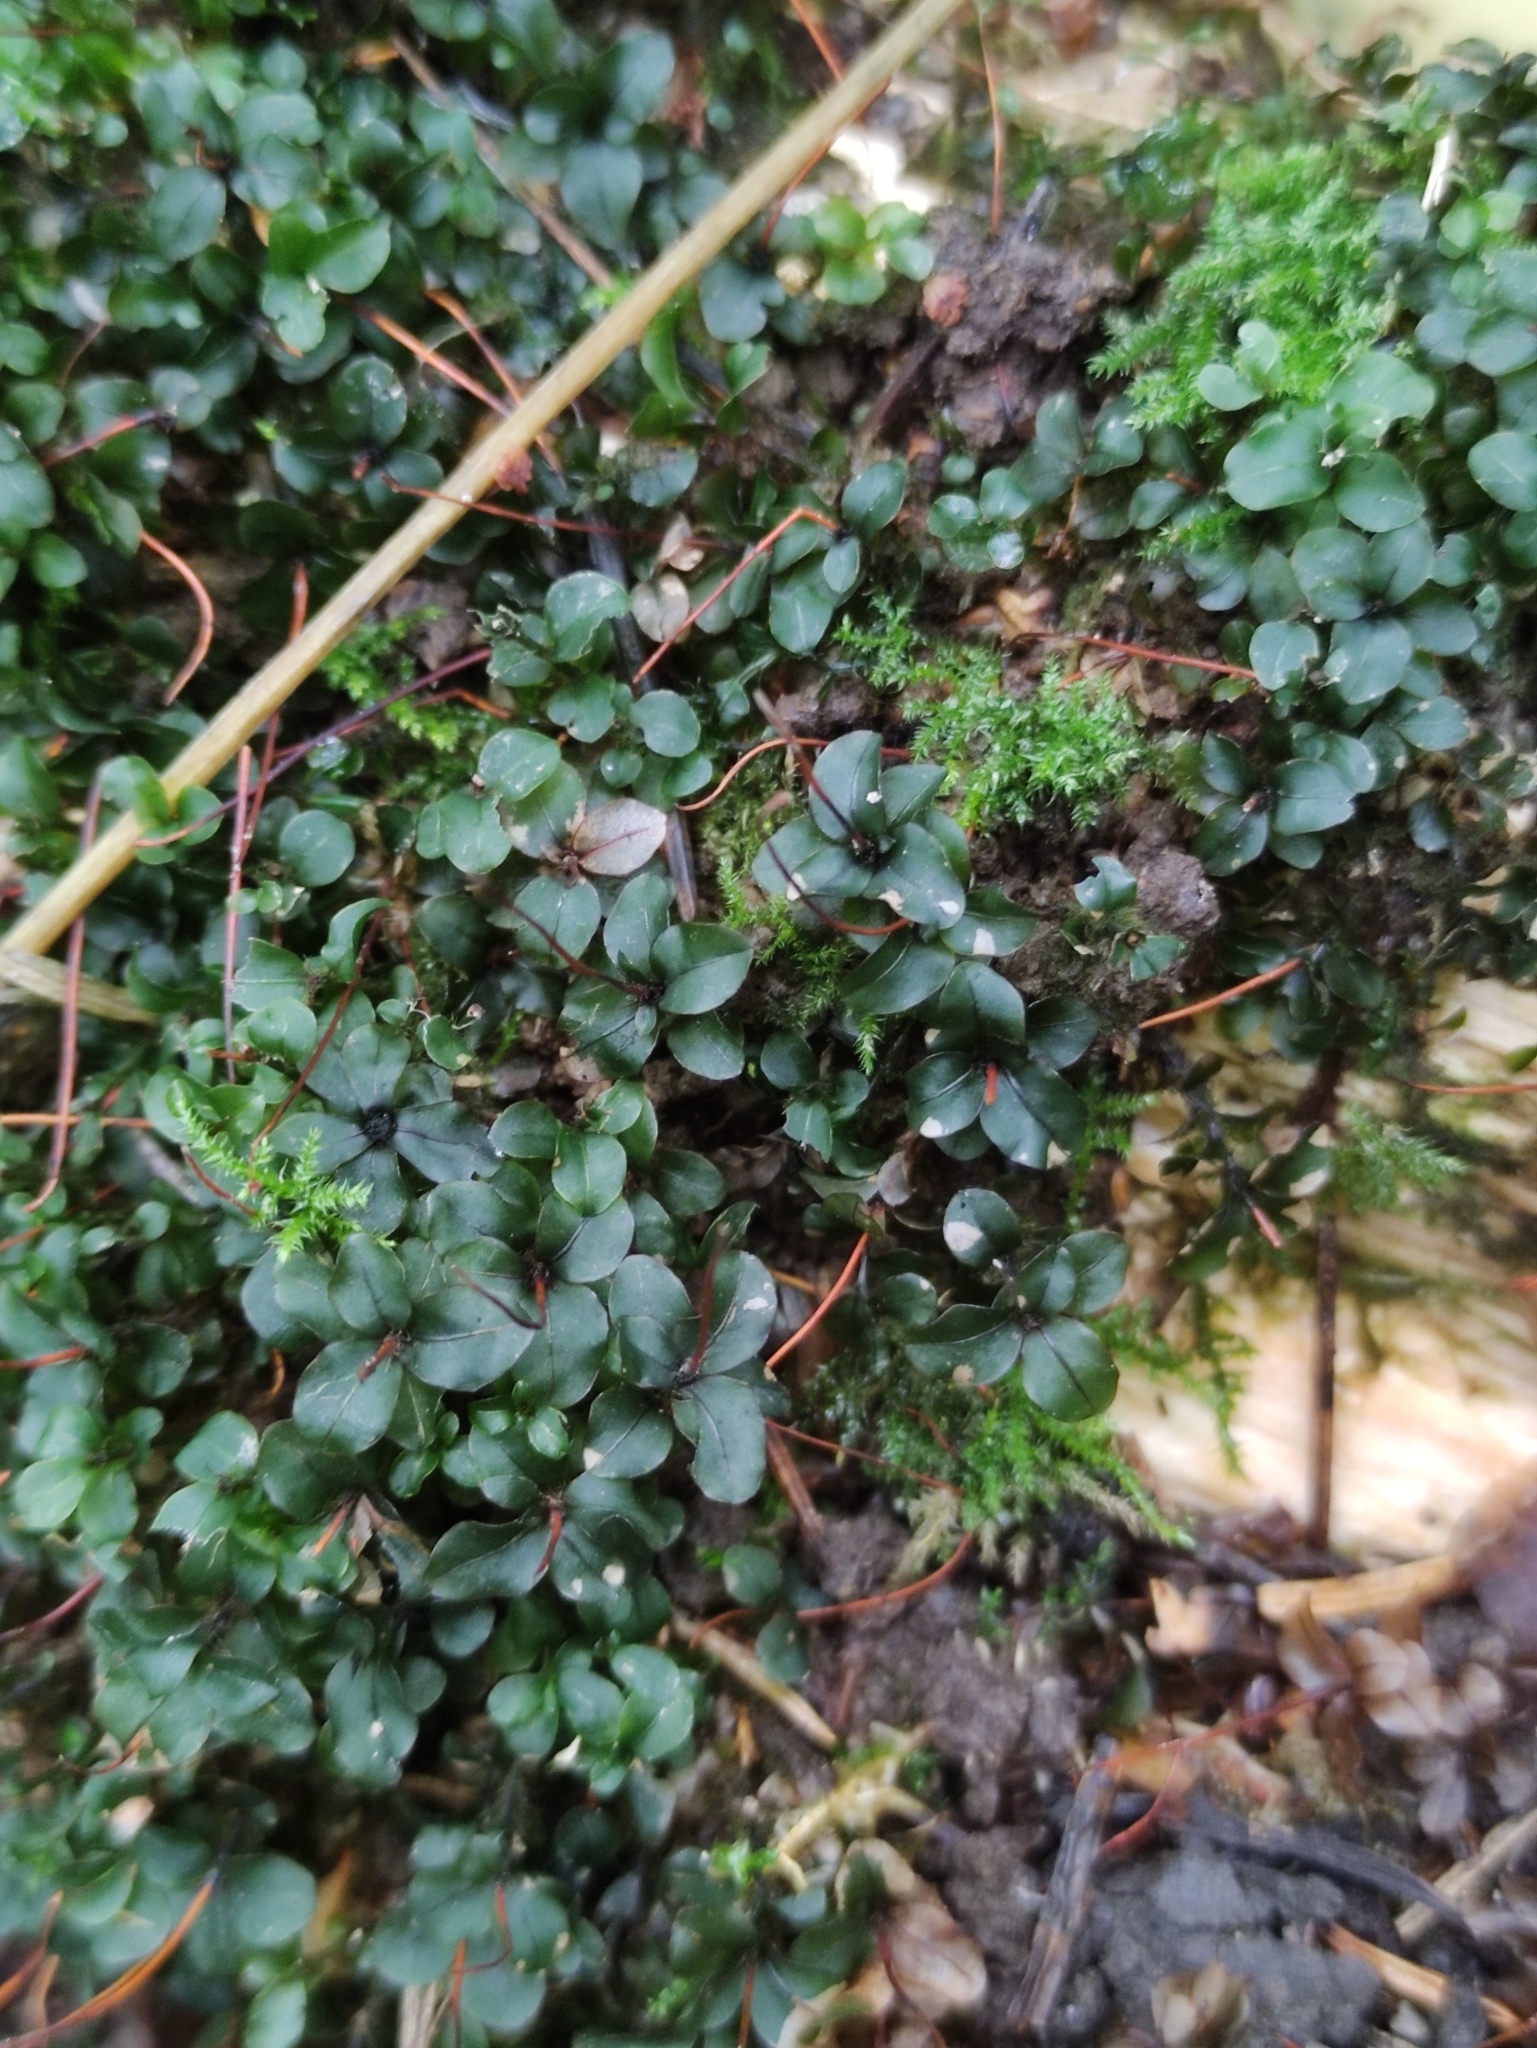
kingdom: Plantae
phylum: Bryophyta
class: Bryopsida
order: Bryales
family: Mniaceae
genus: Rhizomnium
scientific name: Rhizomnium punctatum
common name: Dotted leafy moss
